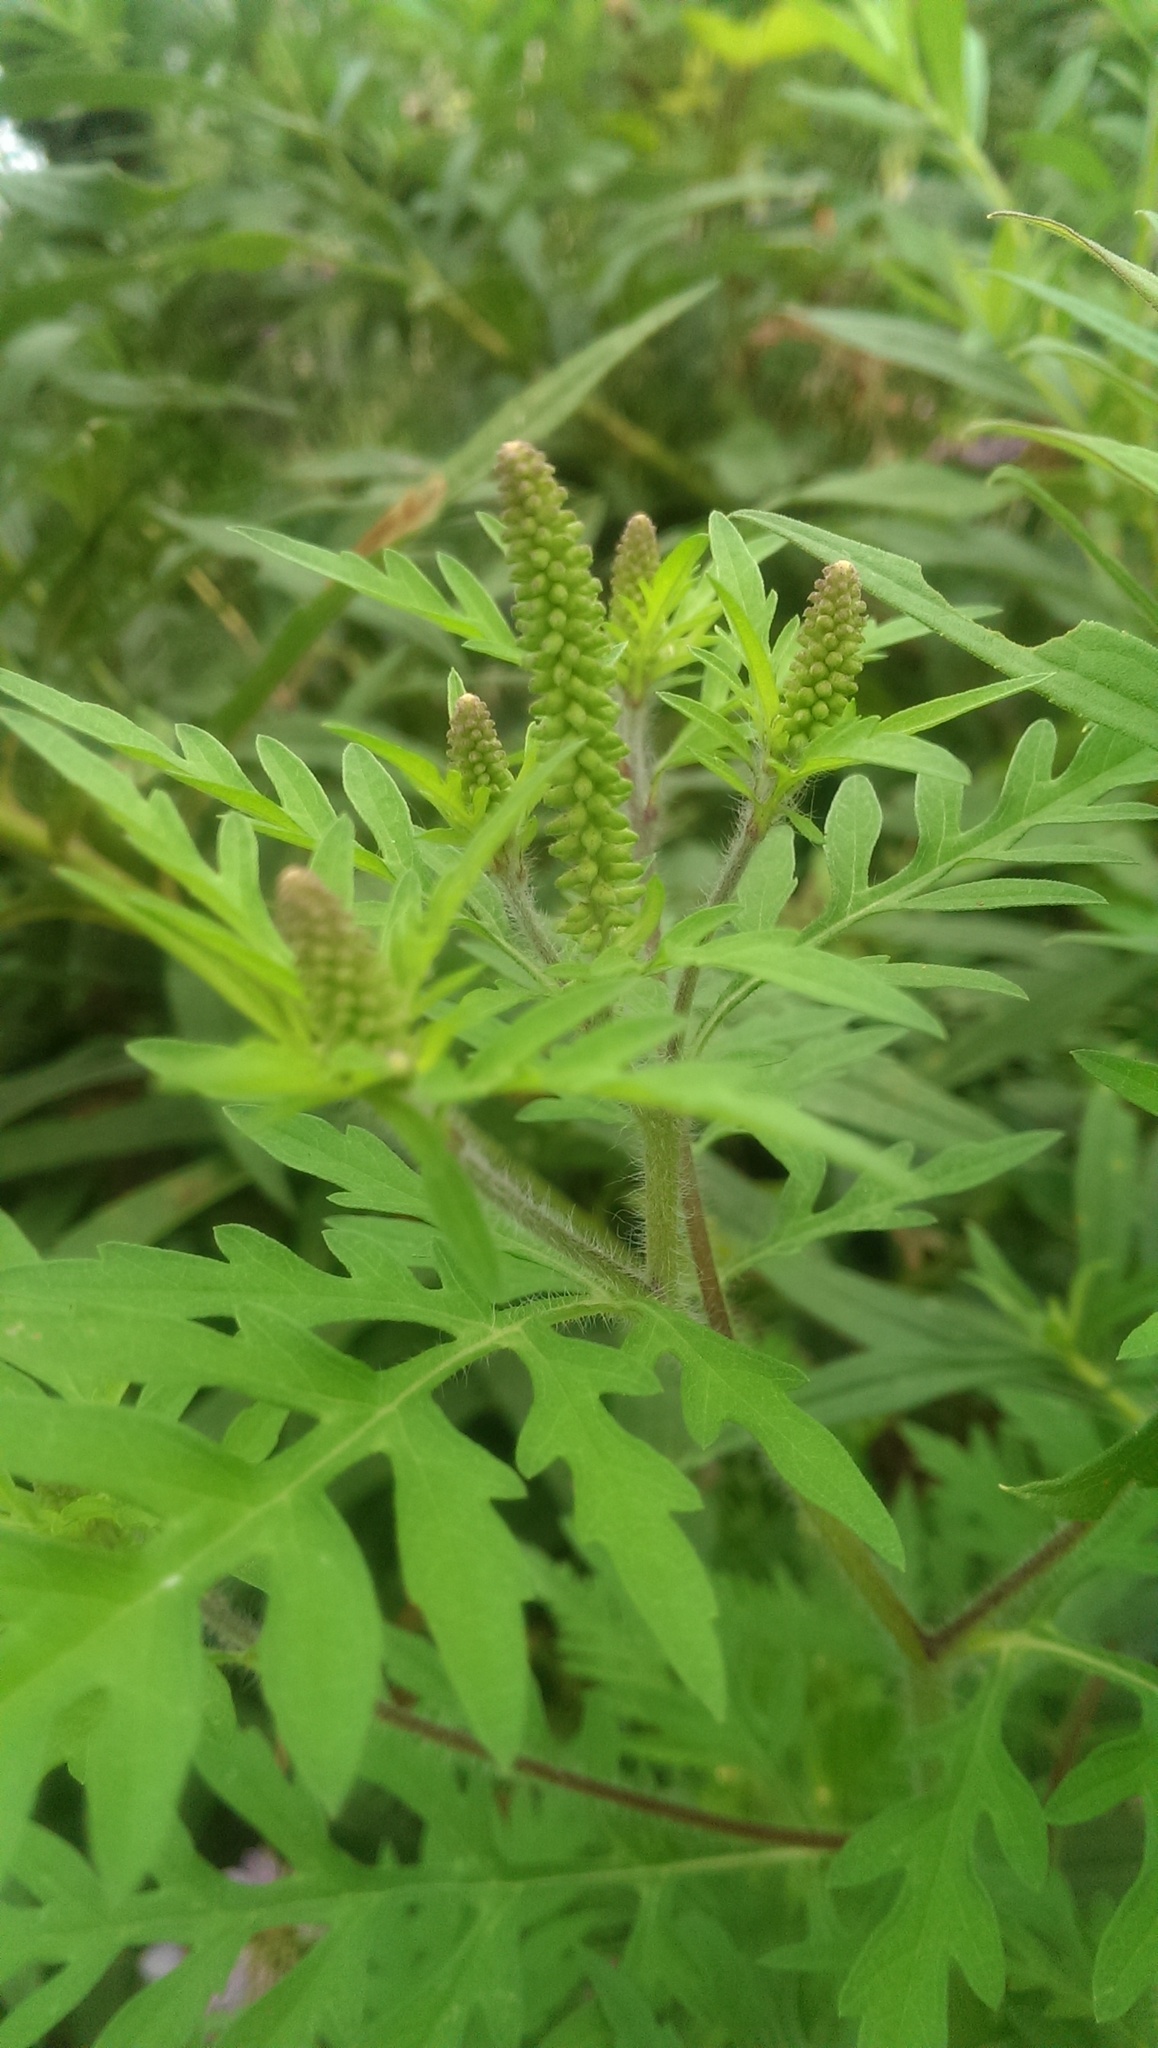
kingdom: Plantae
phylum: Tracheophyta
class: Magnoliopsida
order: Asterales
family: Asteraceae
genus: Ambrosia
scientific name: Ambrosia artemisiifolia
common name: Annual ragweed
